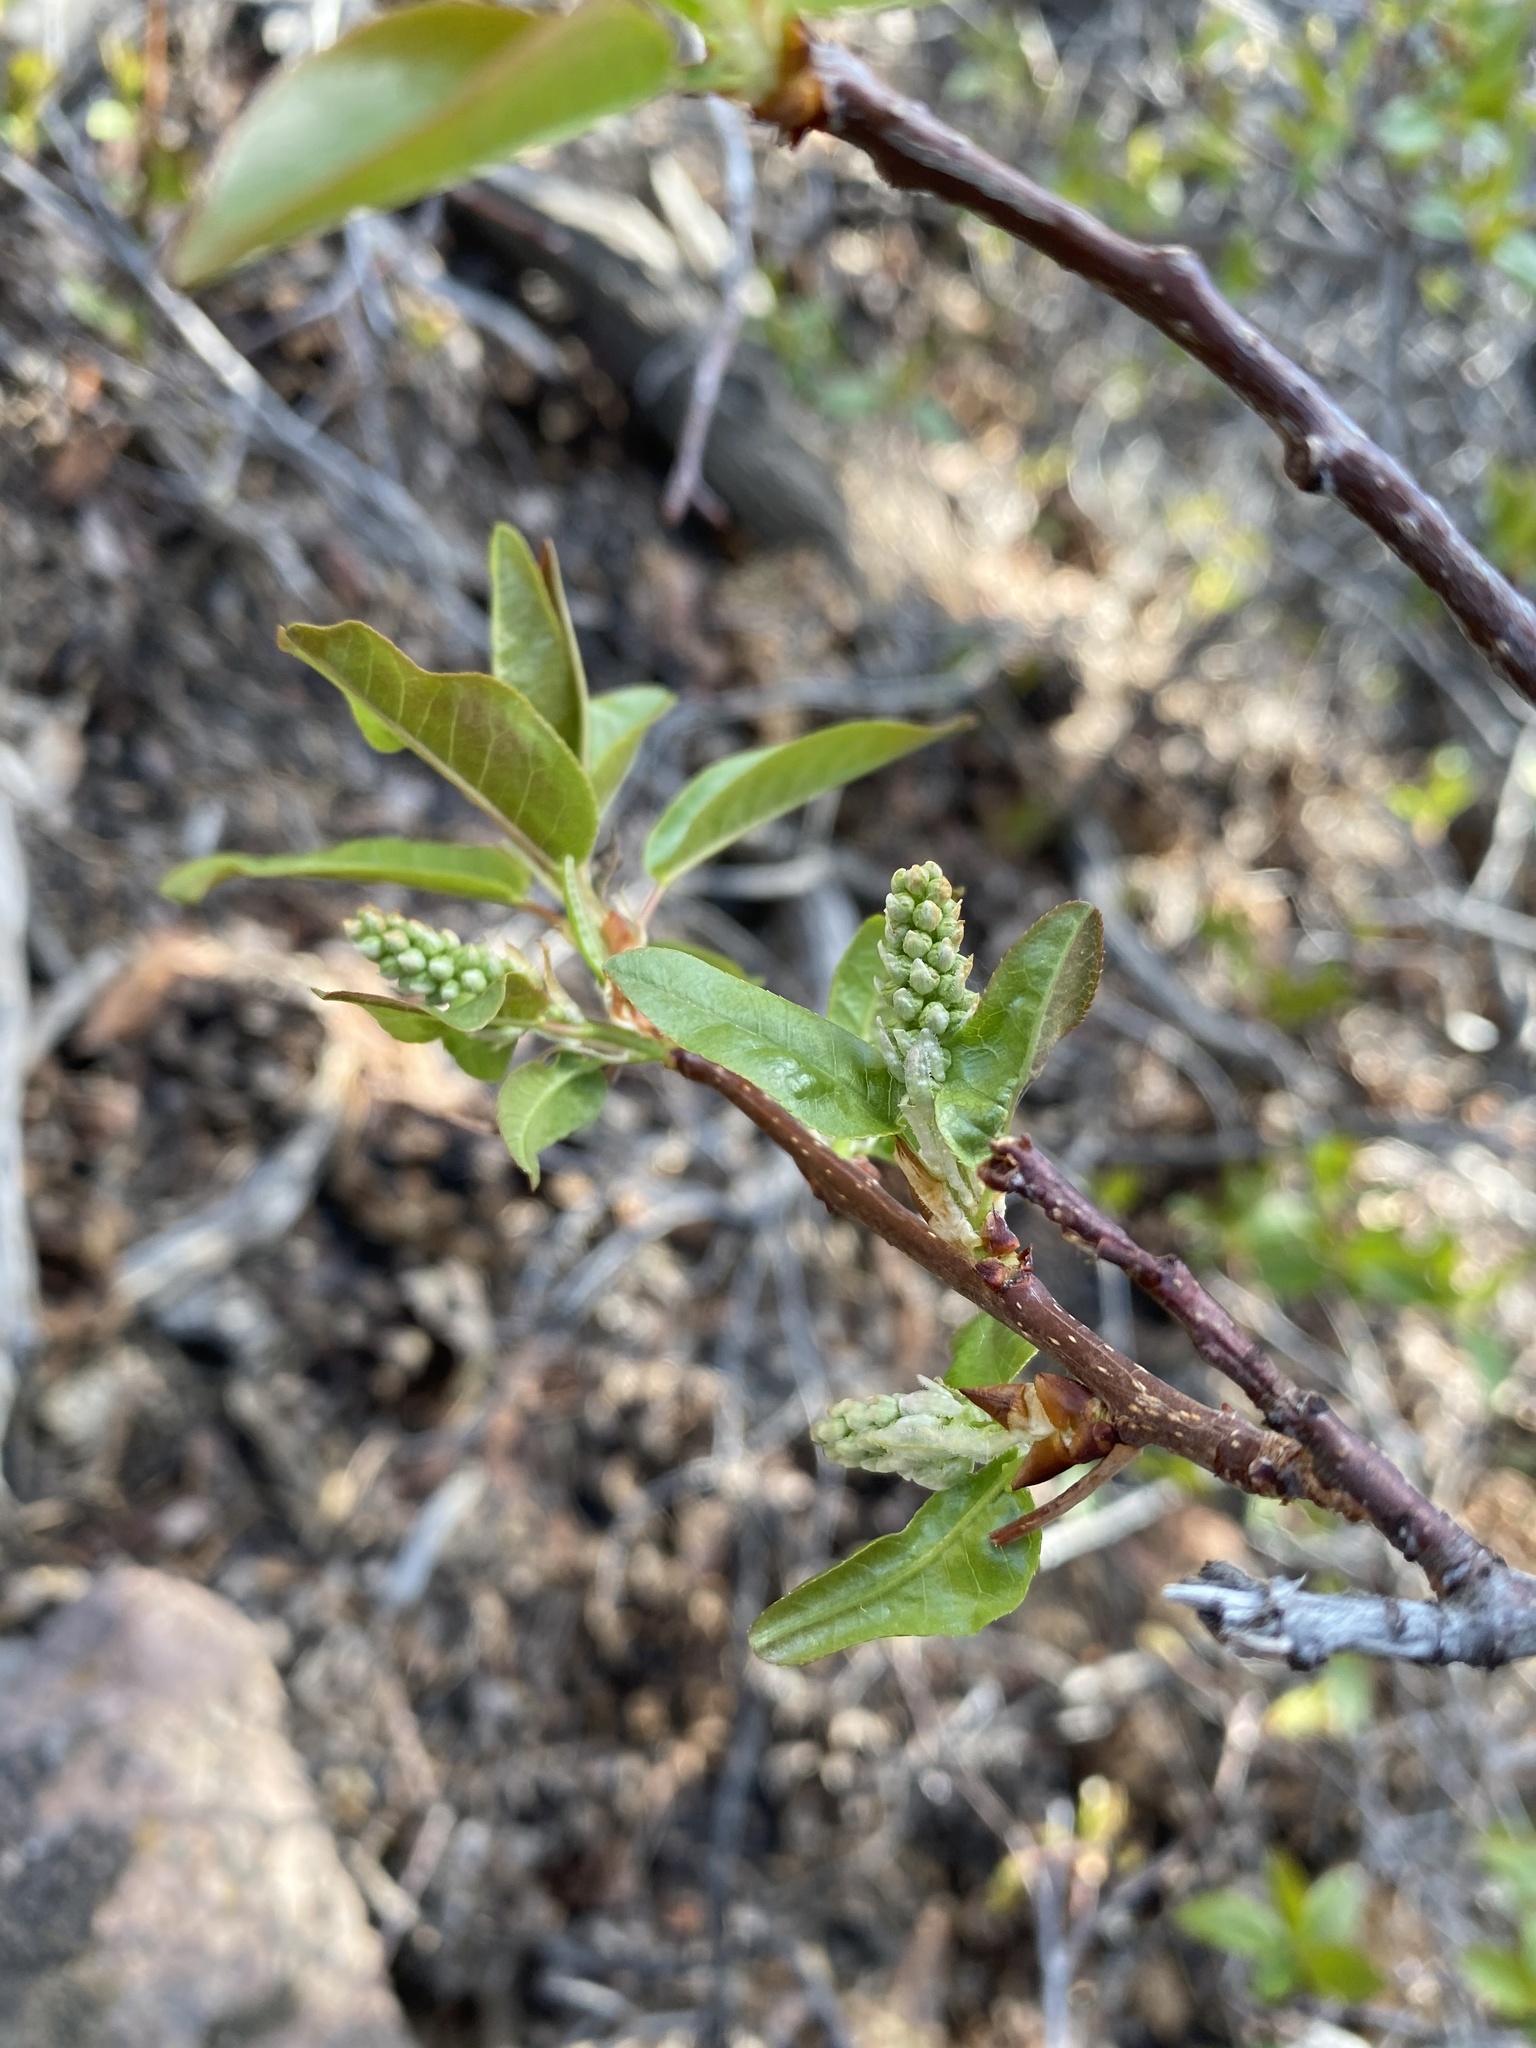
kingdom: Plantae
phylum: Tracheophyta
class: Magnoliopsida
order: Rosales
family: Rosaceae
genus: Prunus
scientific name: Prunus virginiana
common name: Chokecherry
